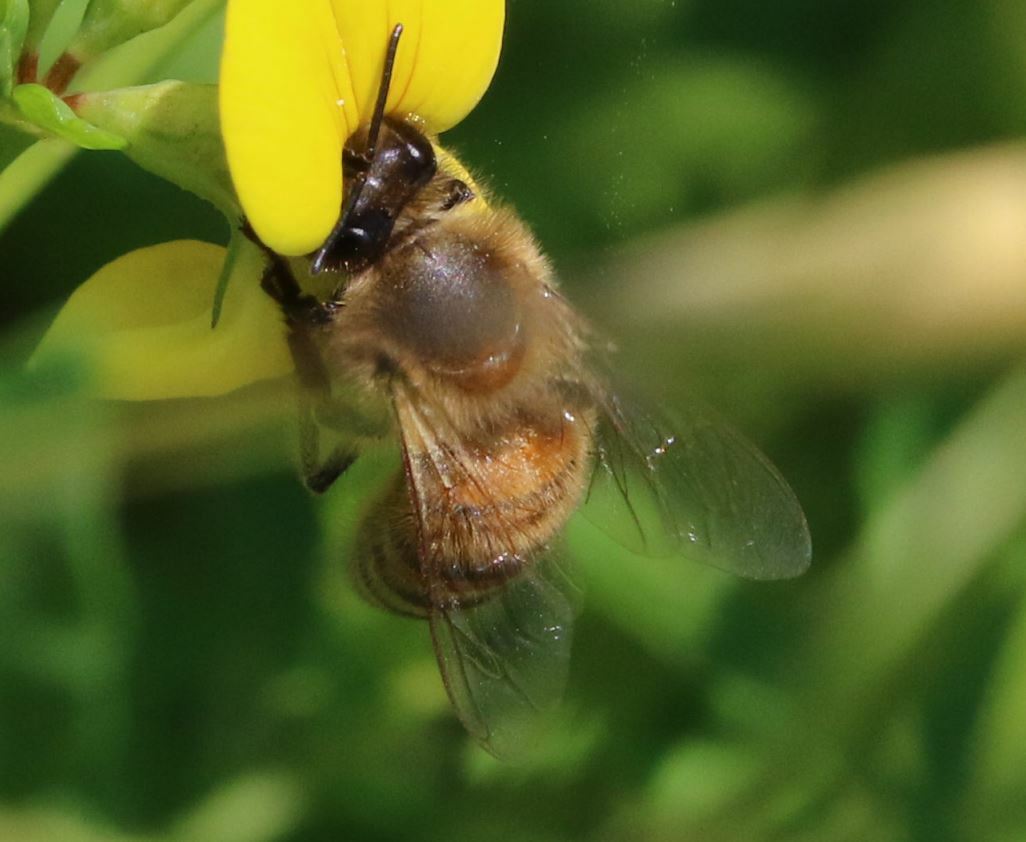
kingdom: Animalia
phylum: Arthropoda
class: Insecta
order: Hymenoptera
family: Apidae
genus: Apis
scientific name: Apis mellifera
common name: Honey bee
